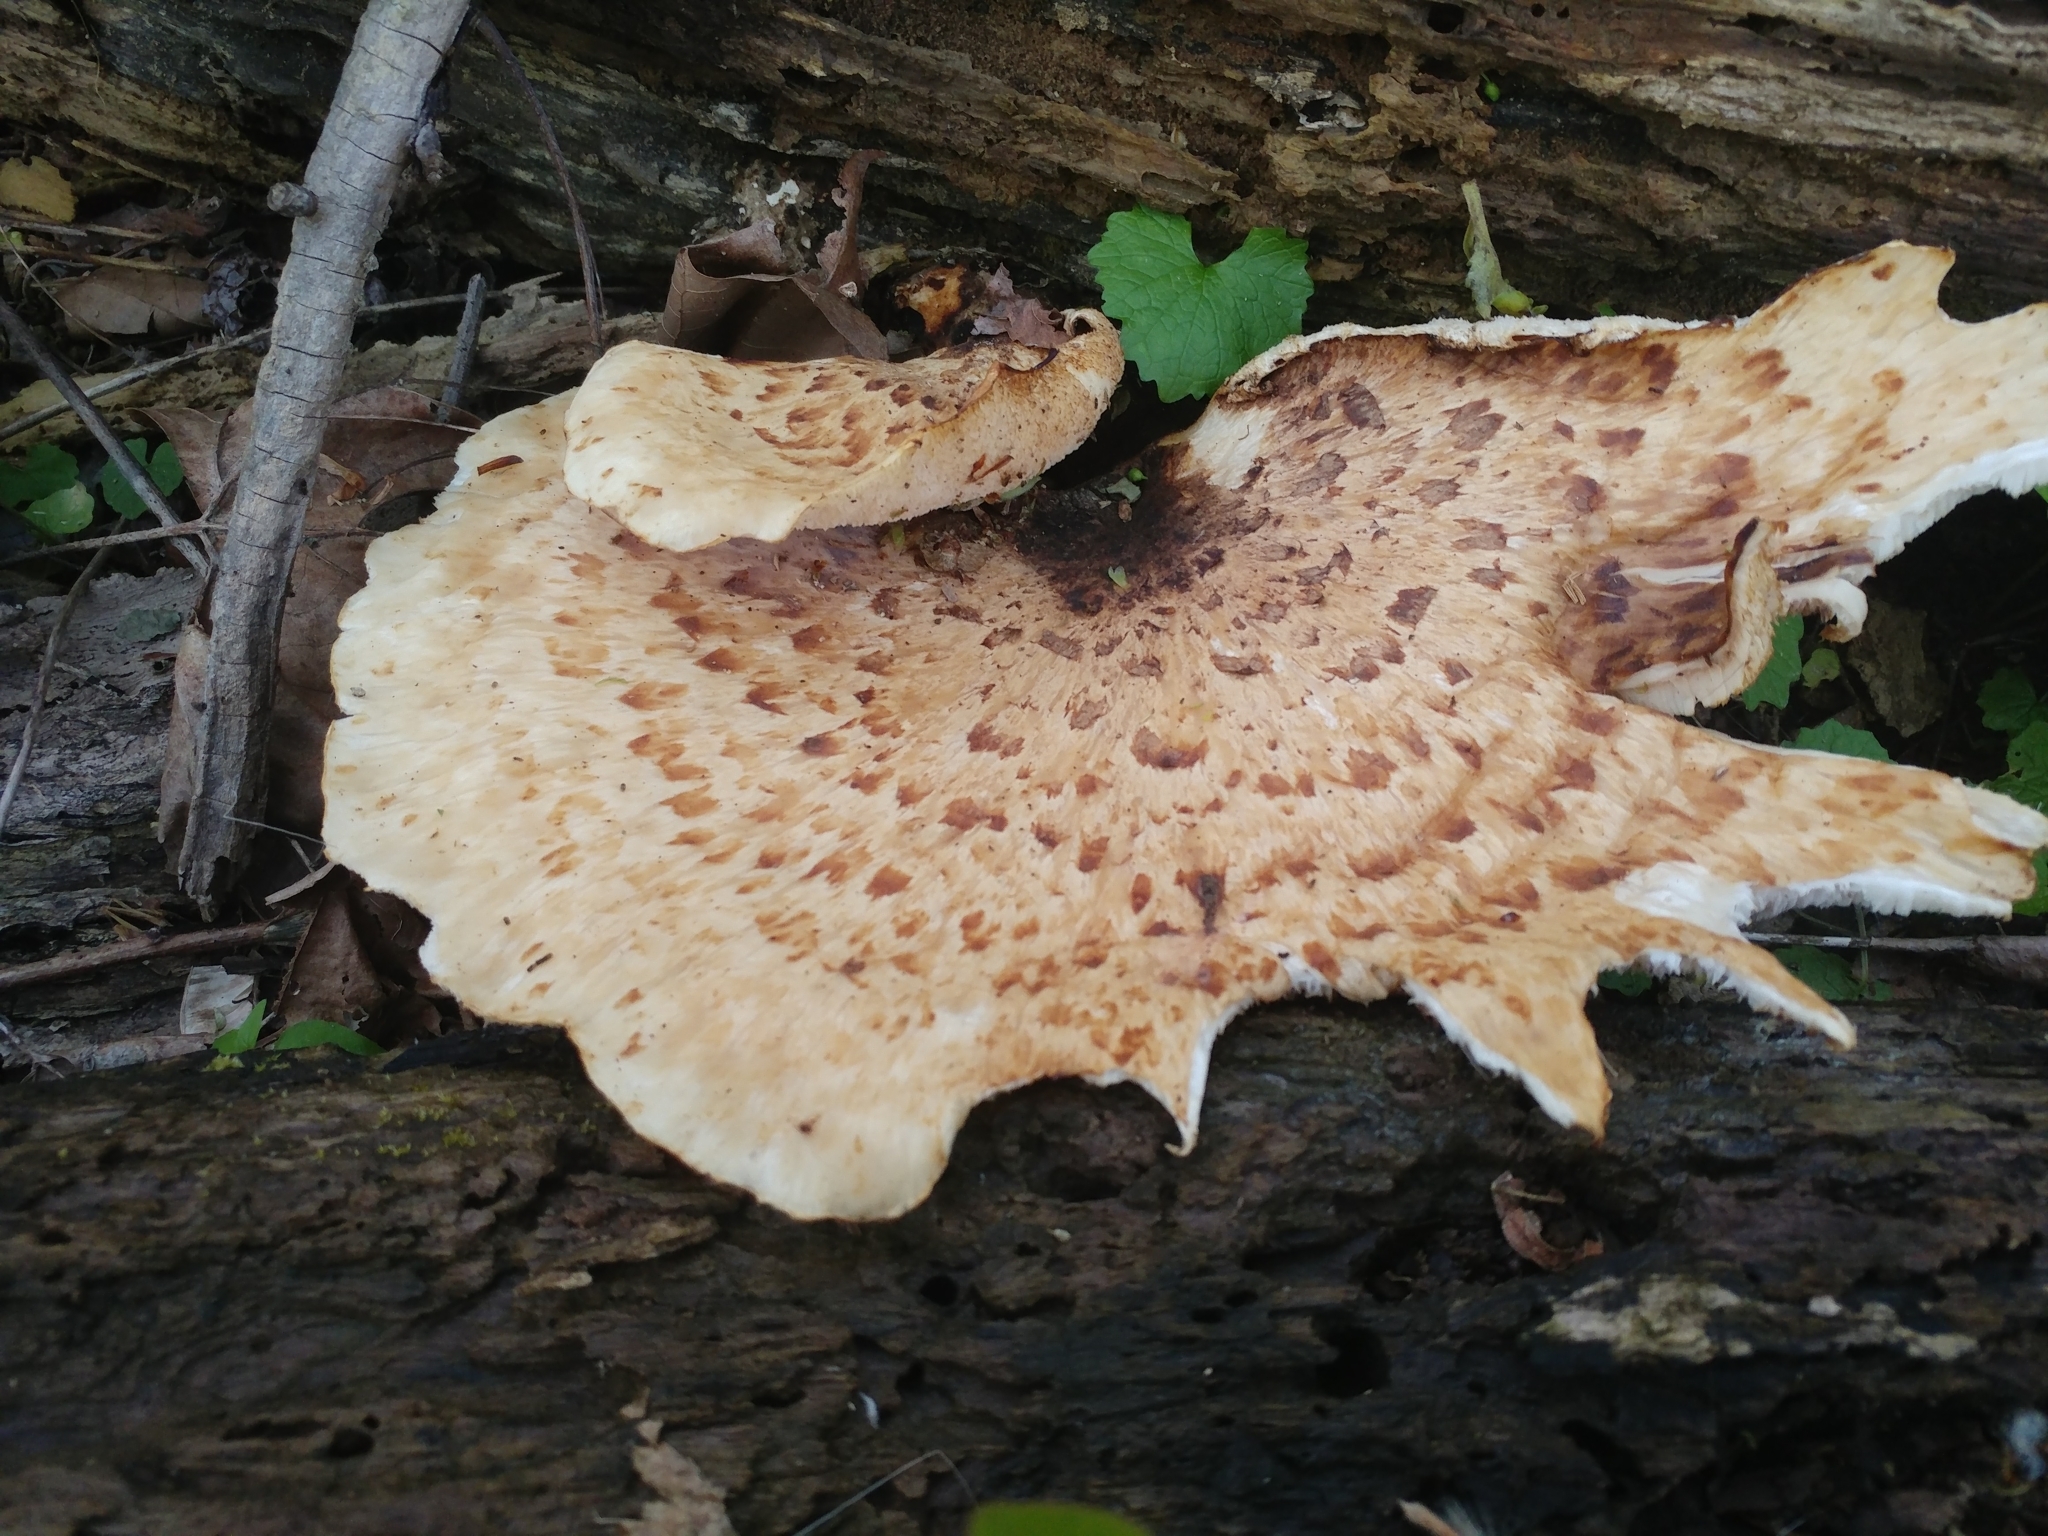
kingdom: Fungi
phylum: Basidiomycota
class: Agaricomycetes
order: Polyporales
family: Polyporaceae
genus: Cerioporus
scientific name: Cerioporus squamosus
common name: Dryad's saddle
